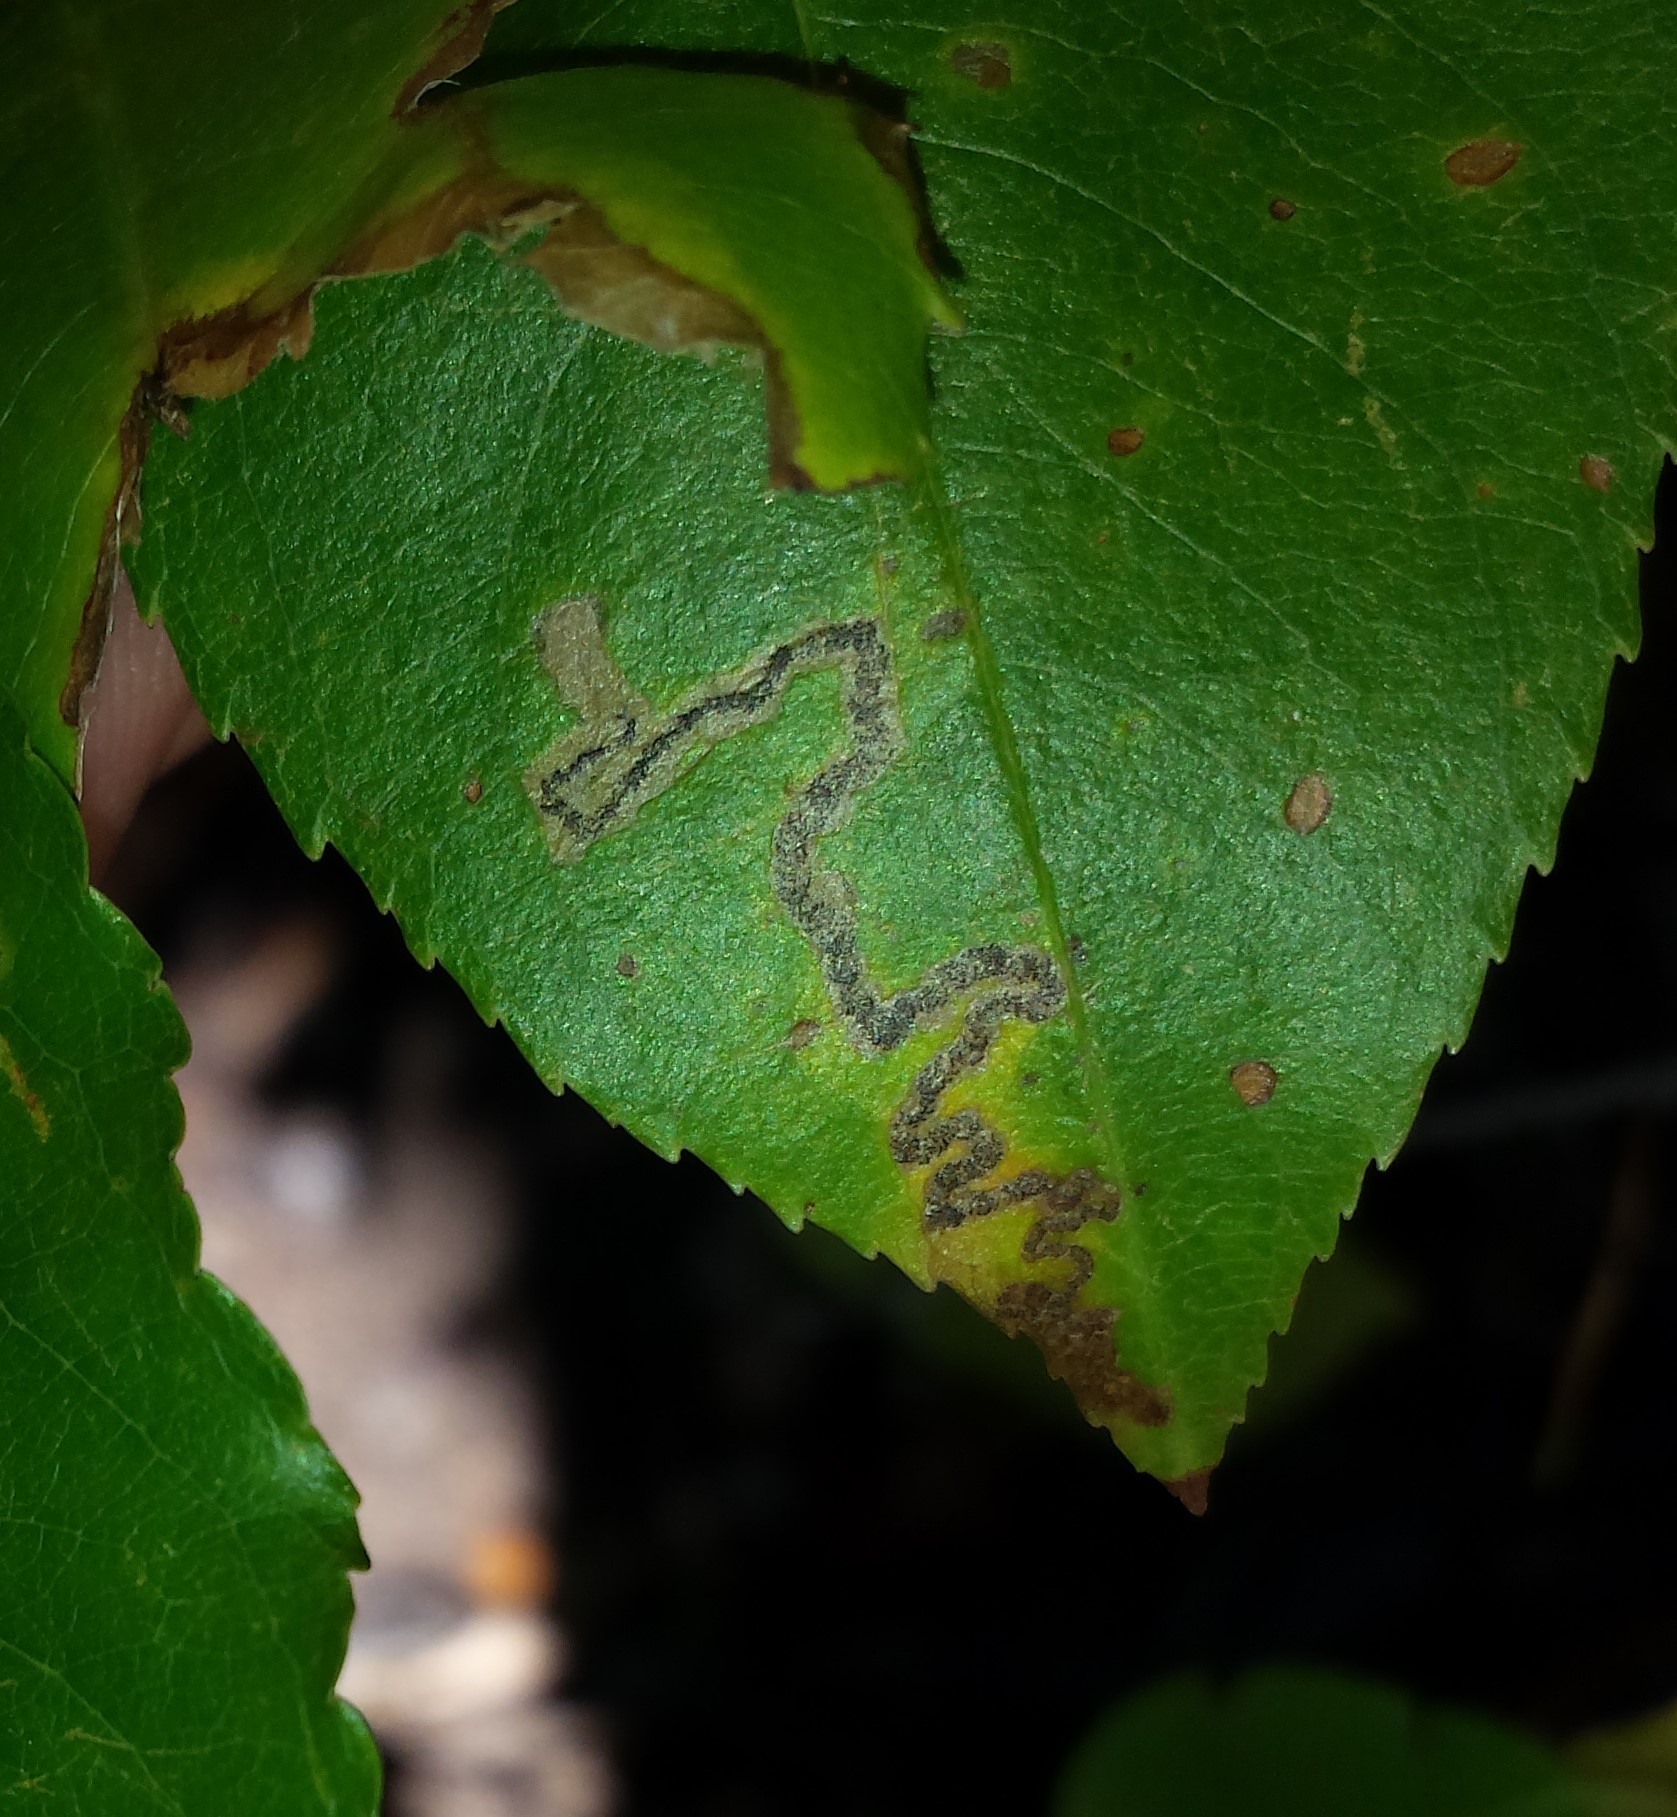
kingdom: Animalia
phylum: Arthropoda
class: Insecta
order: Lepidoptera
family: Nepticulidae
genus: Stigmella
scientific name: Stigmella prunifoliella
